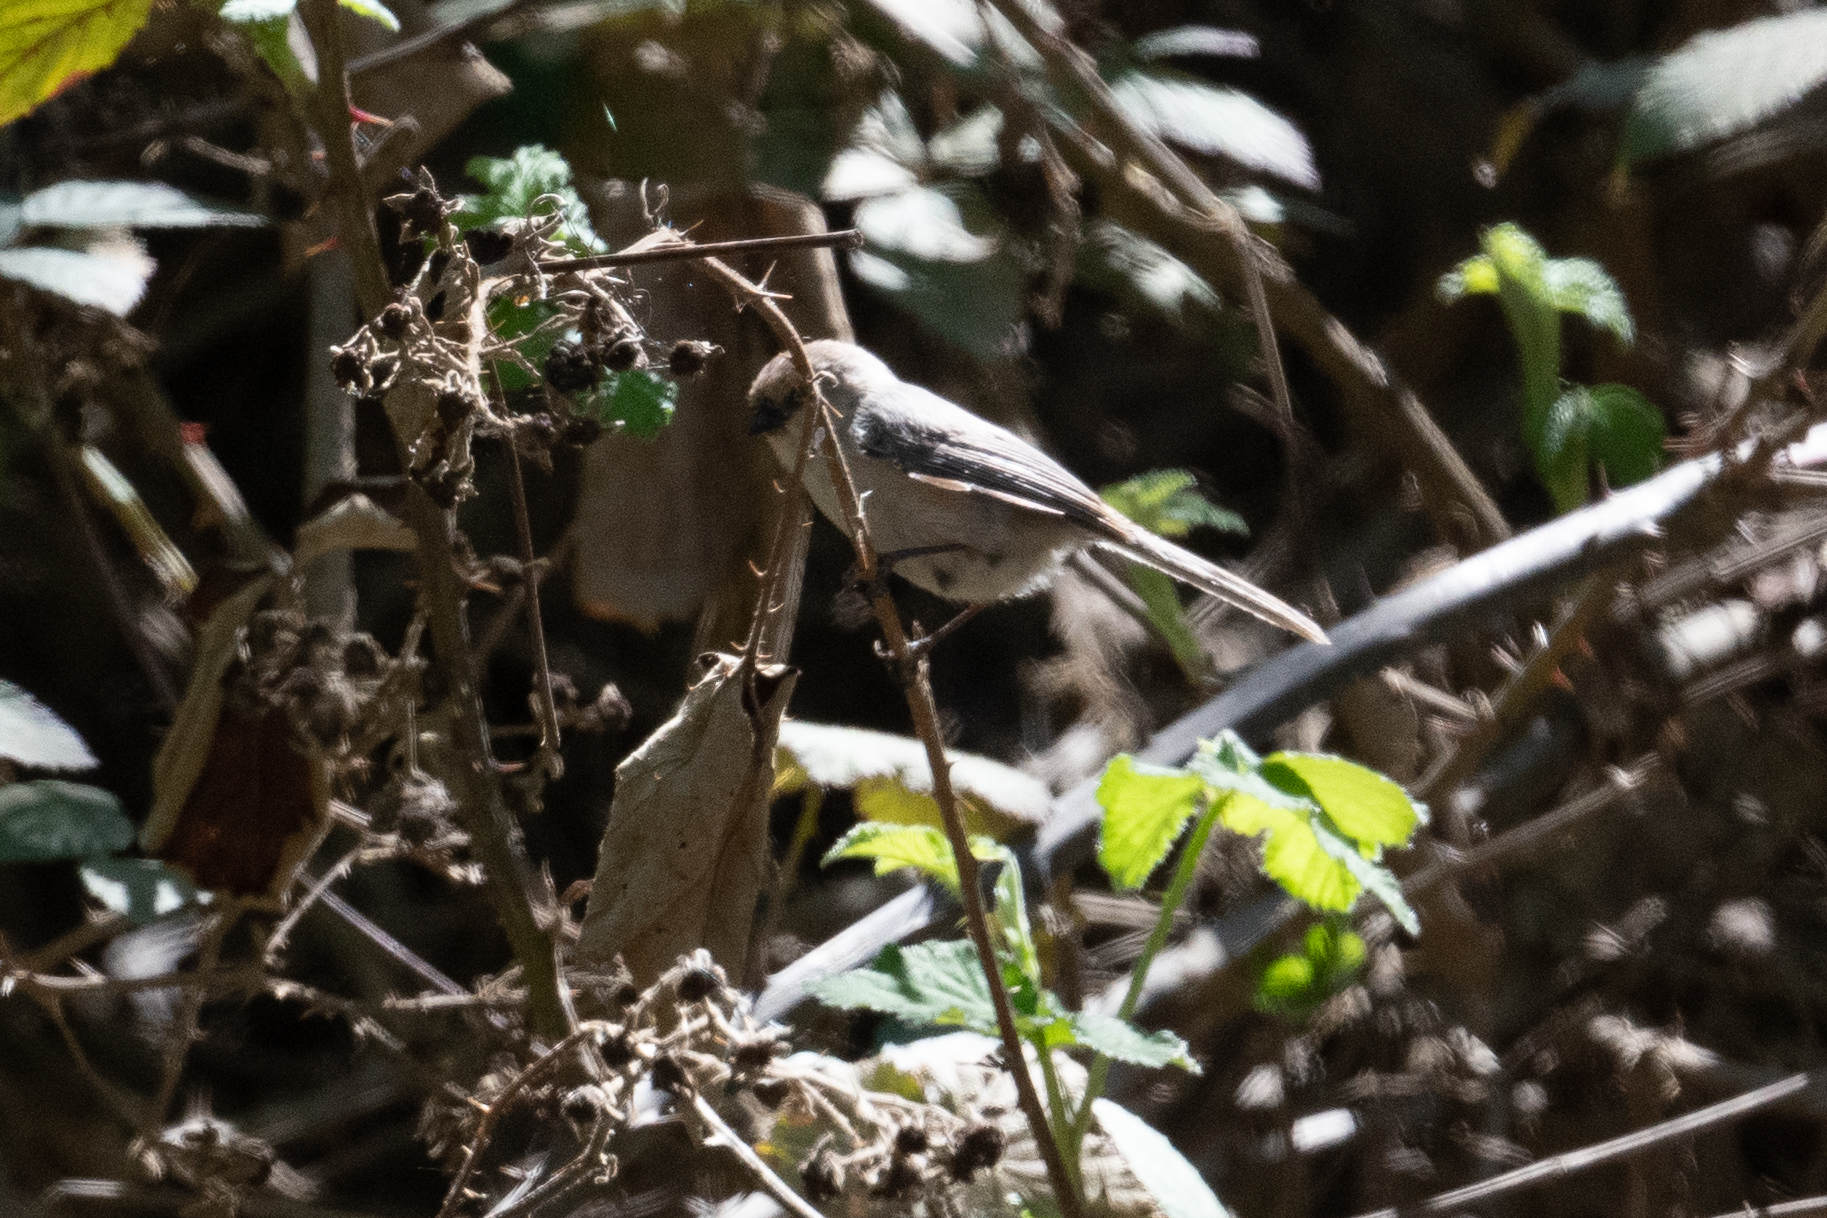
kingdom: Animalia
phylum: Chordata
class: Aves
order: Passeriformes
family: Aegithalidae
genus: Psaltriparus
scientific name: Psaltriparus minimus
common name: American bushtit
